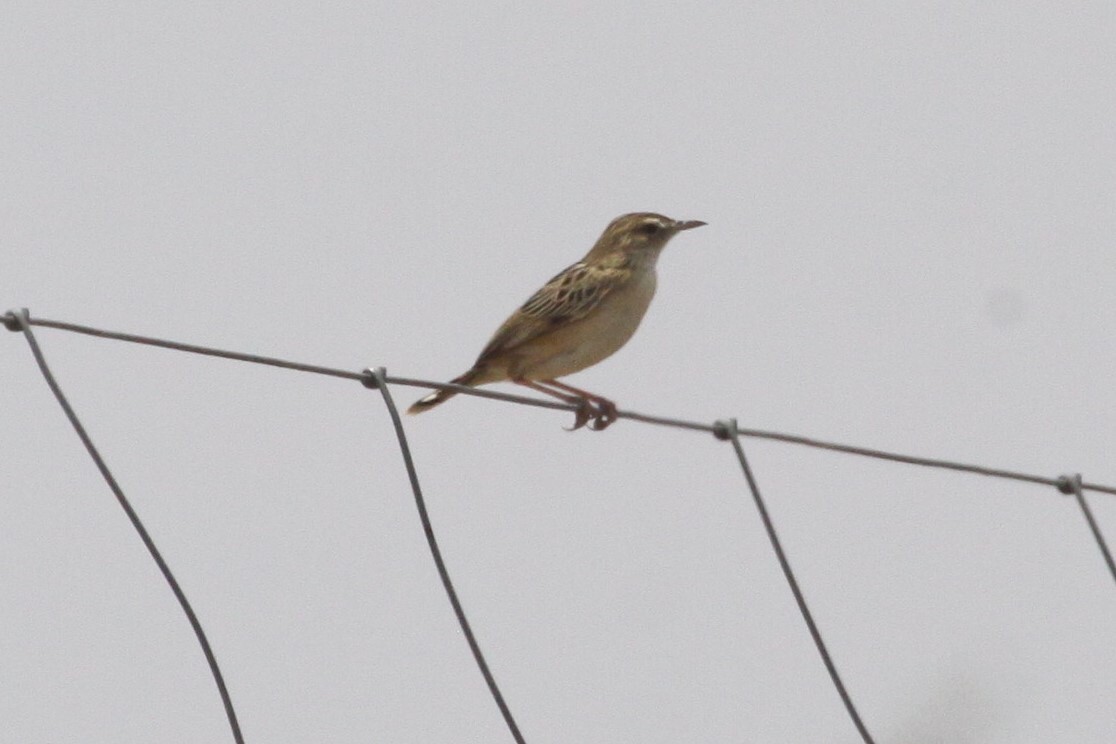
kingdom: Animalia
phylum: Chordata
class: Aves
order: Passeriformes
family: Cisticolidae
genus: Cisticola
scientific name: Cisticola aridulus
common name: Desert cisticola
